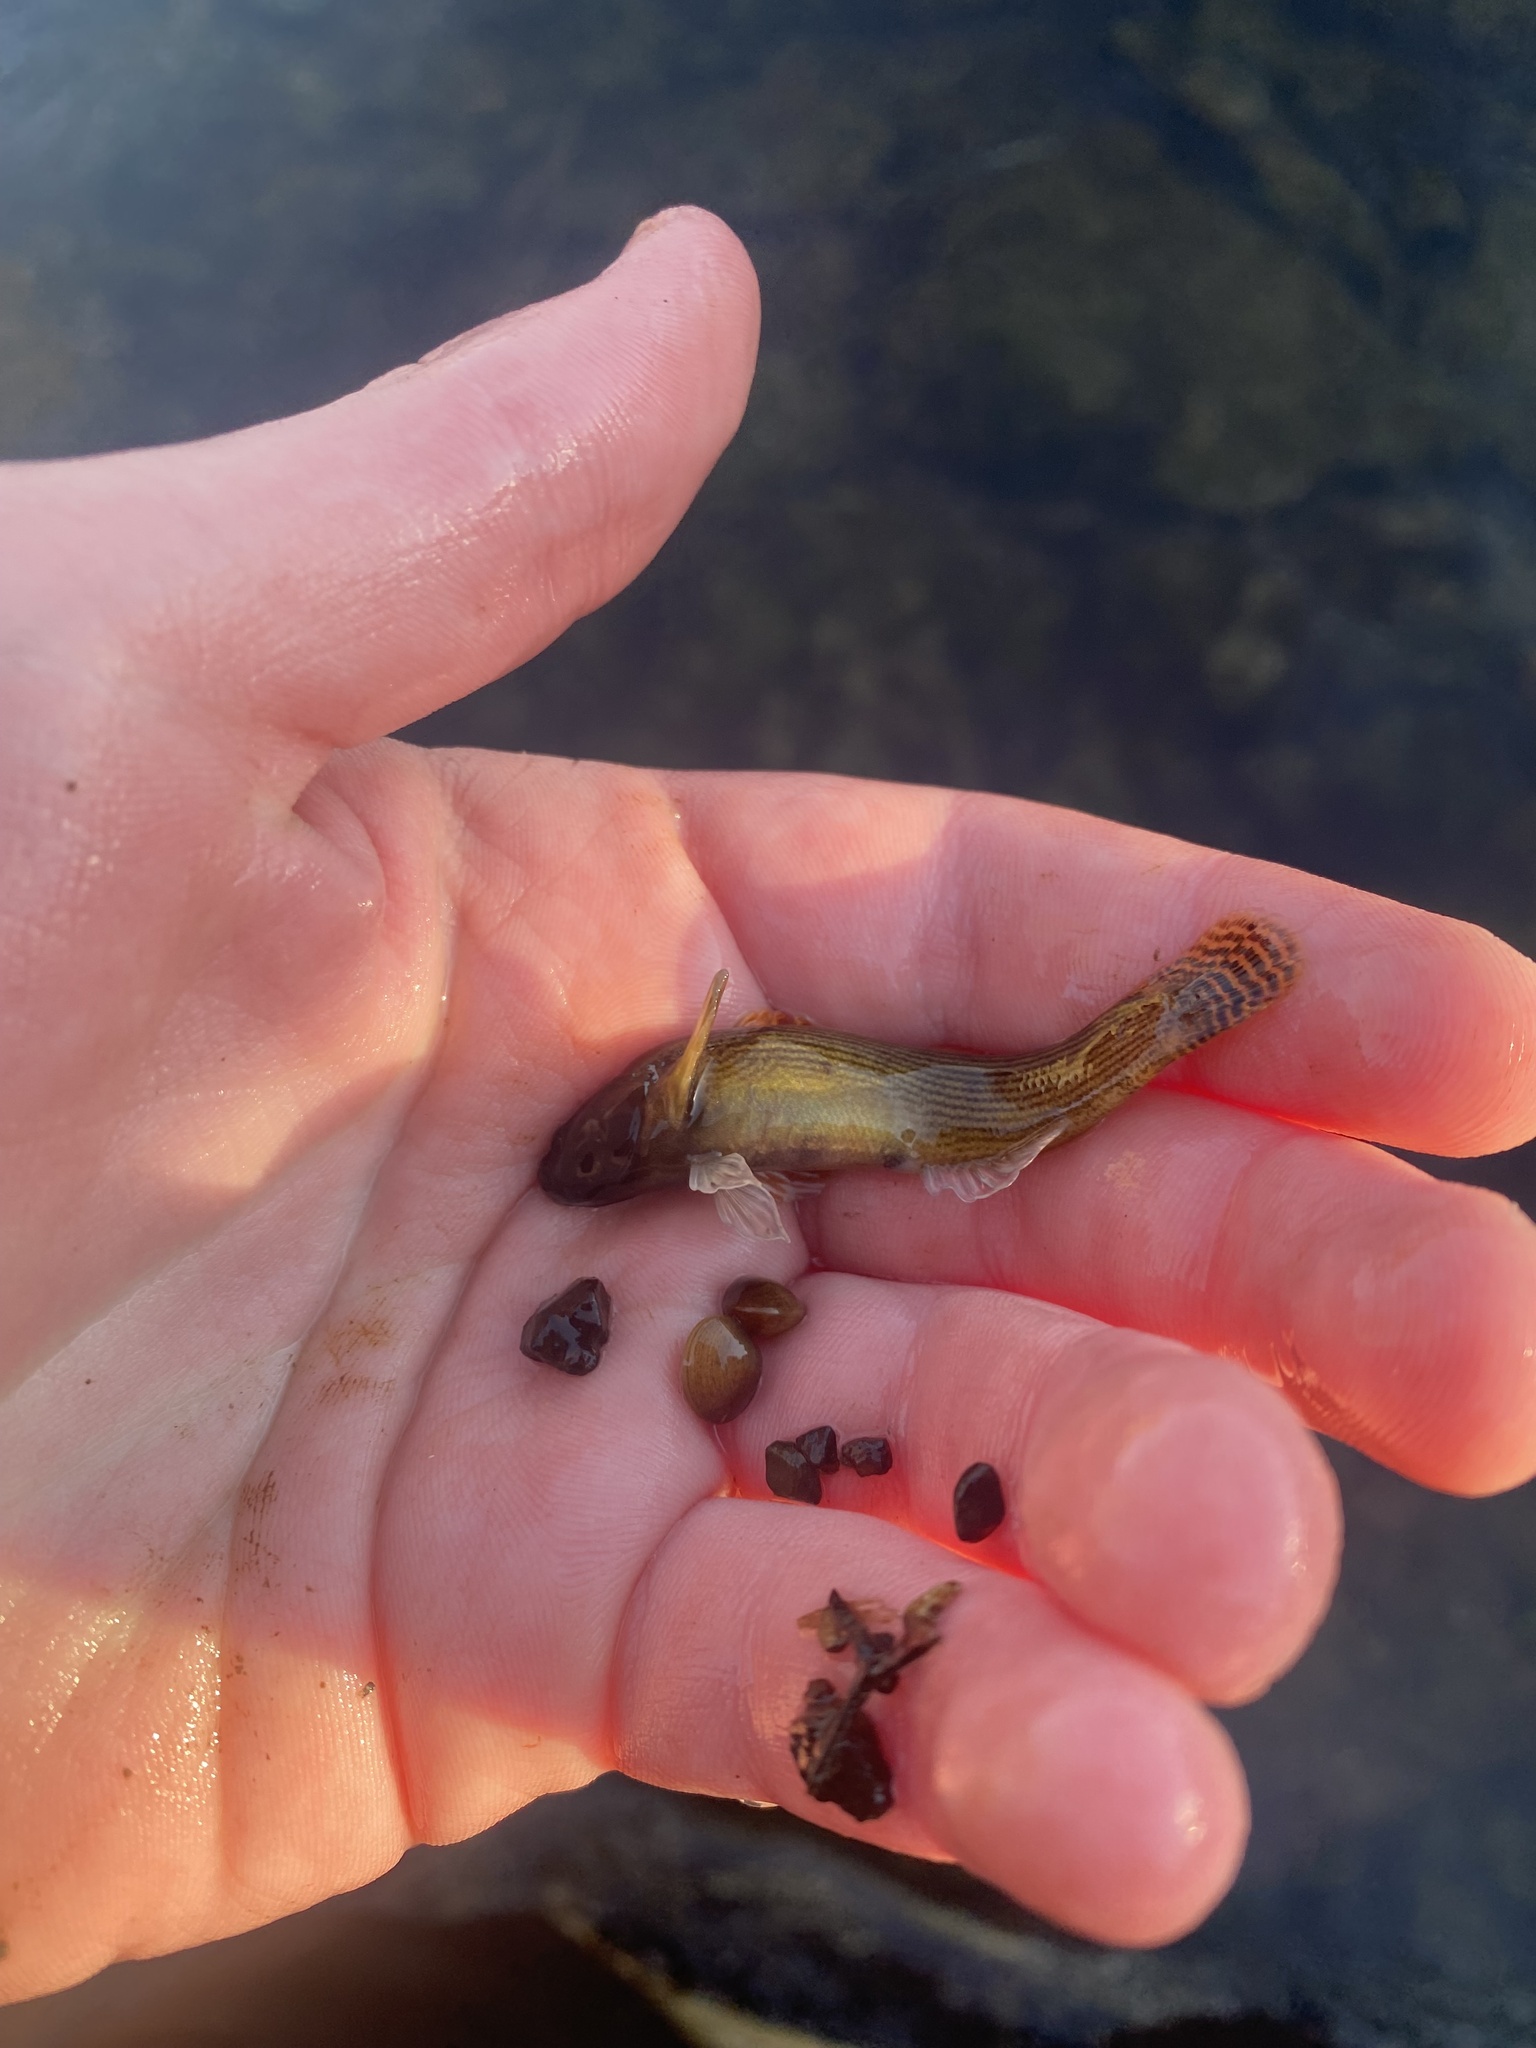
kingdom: Animalia
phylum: Chordata
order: Perciformes
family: Percidae
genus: Etheostoma
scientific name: Etheostoma flabellare
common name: Fantail darter
